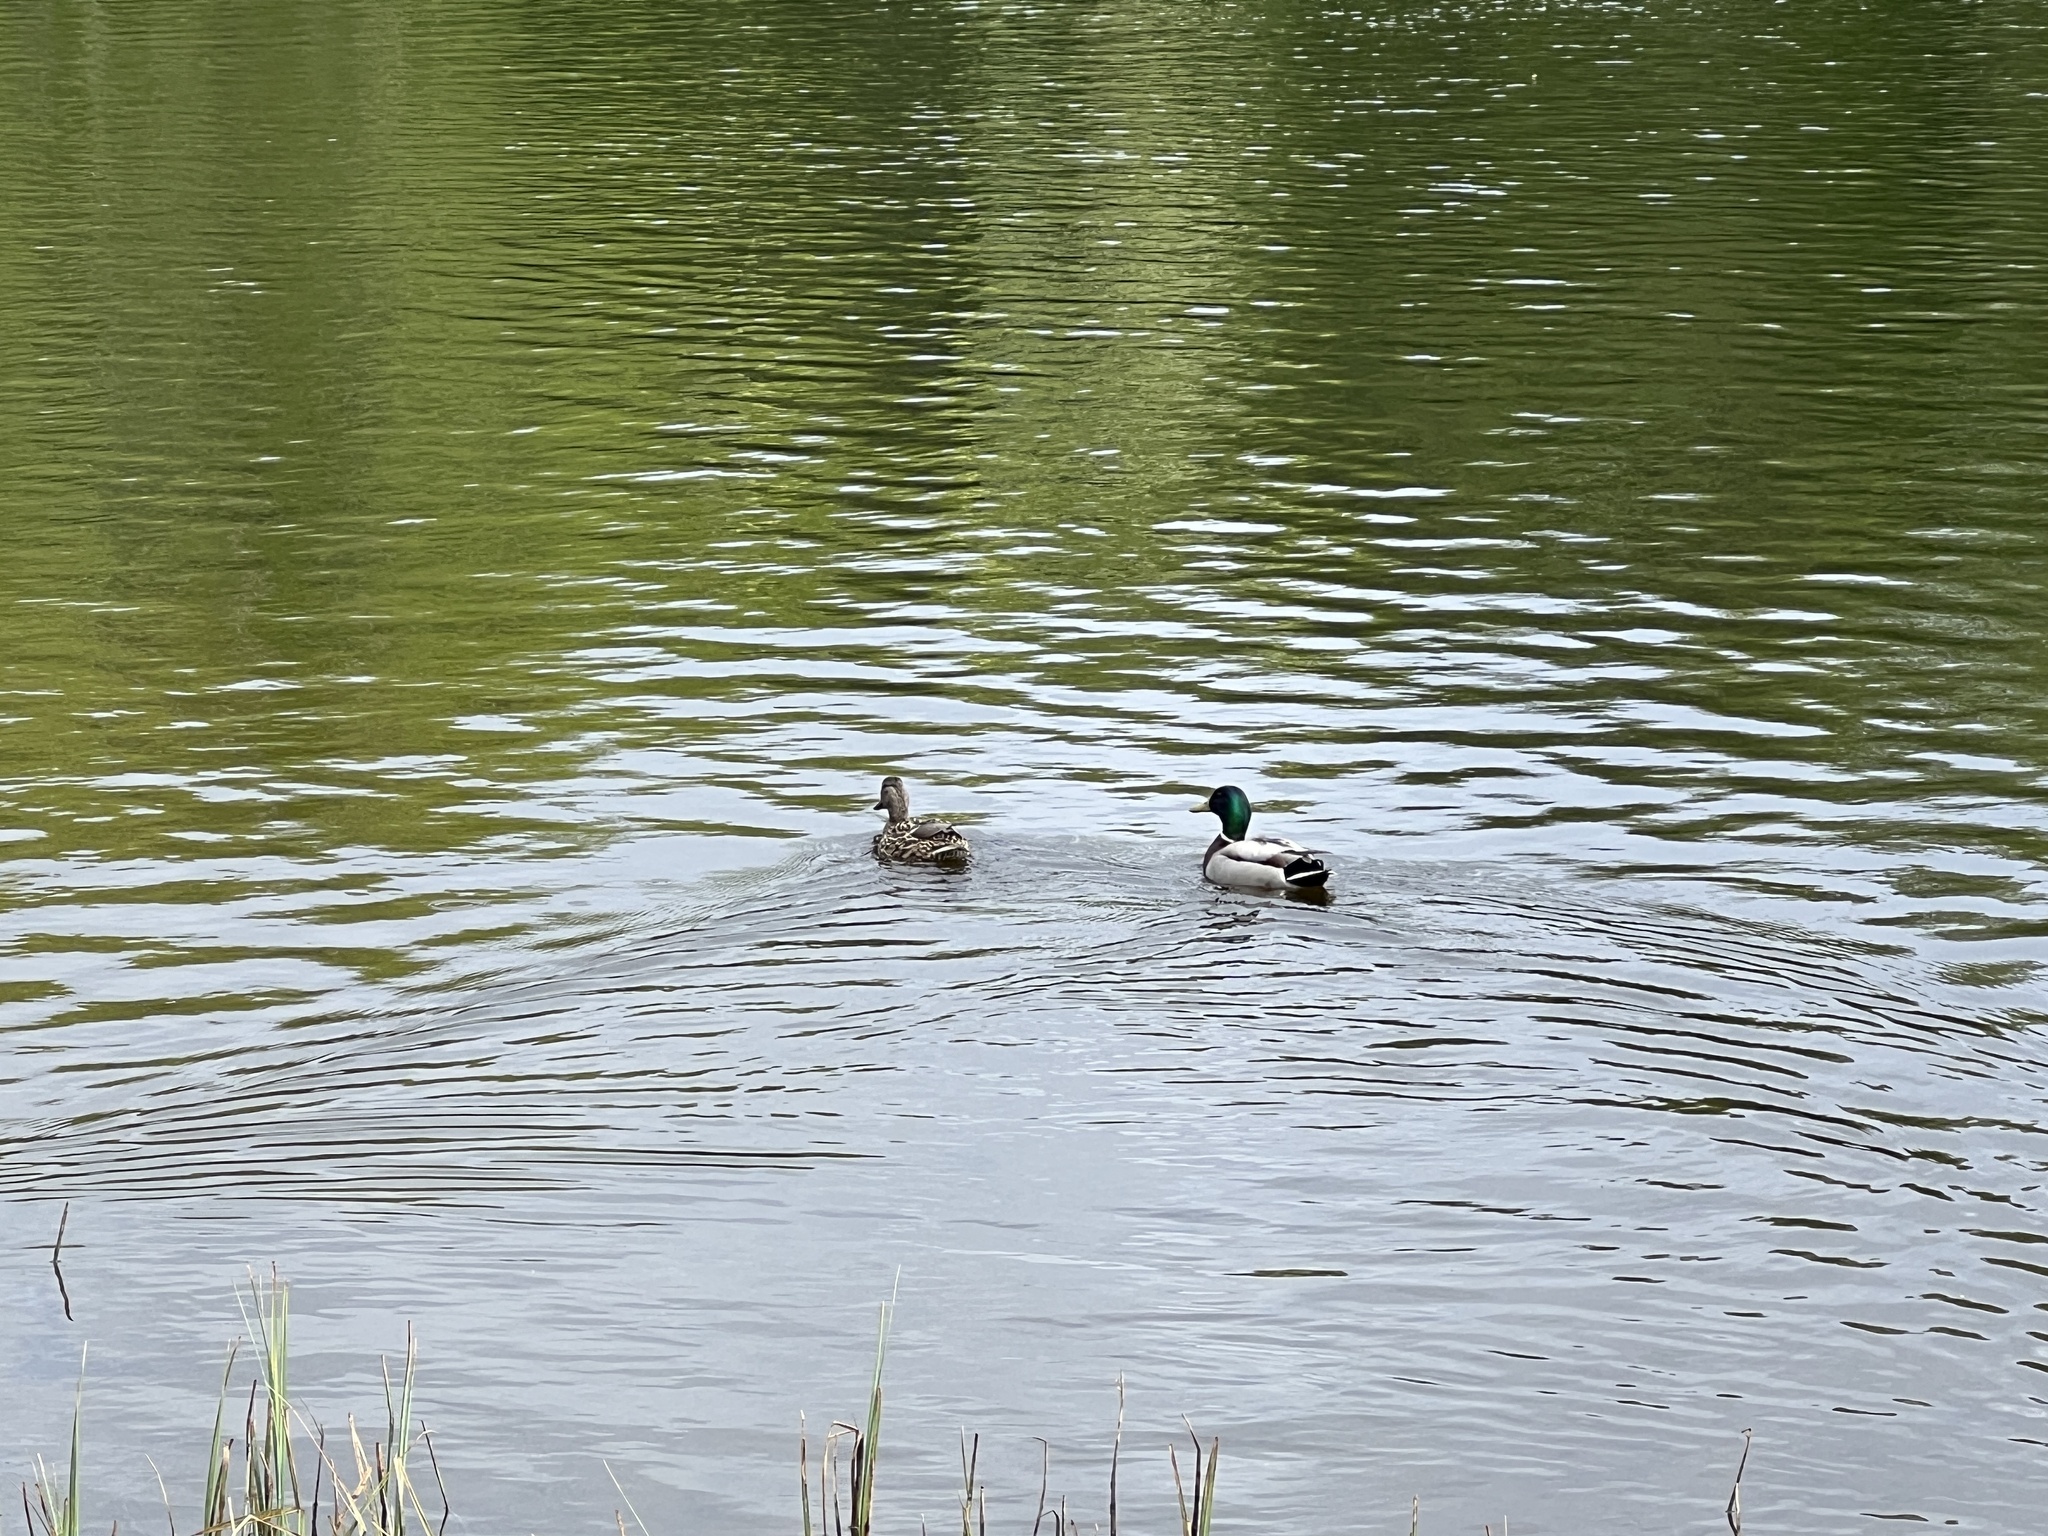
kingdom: Animalia
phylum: Chordata
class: Aves
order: Anseriformes
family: Anatidae
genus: Anas
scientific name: Anas platyrhynchos
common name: Mallard
